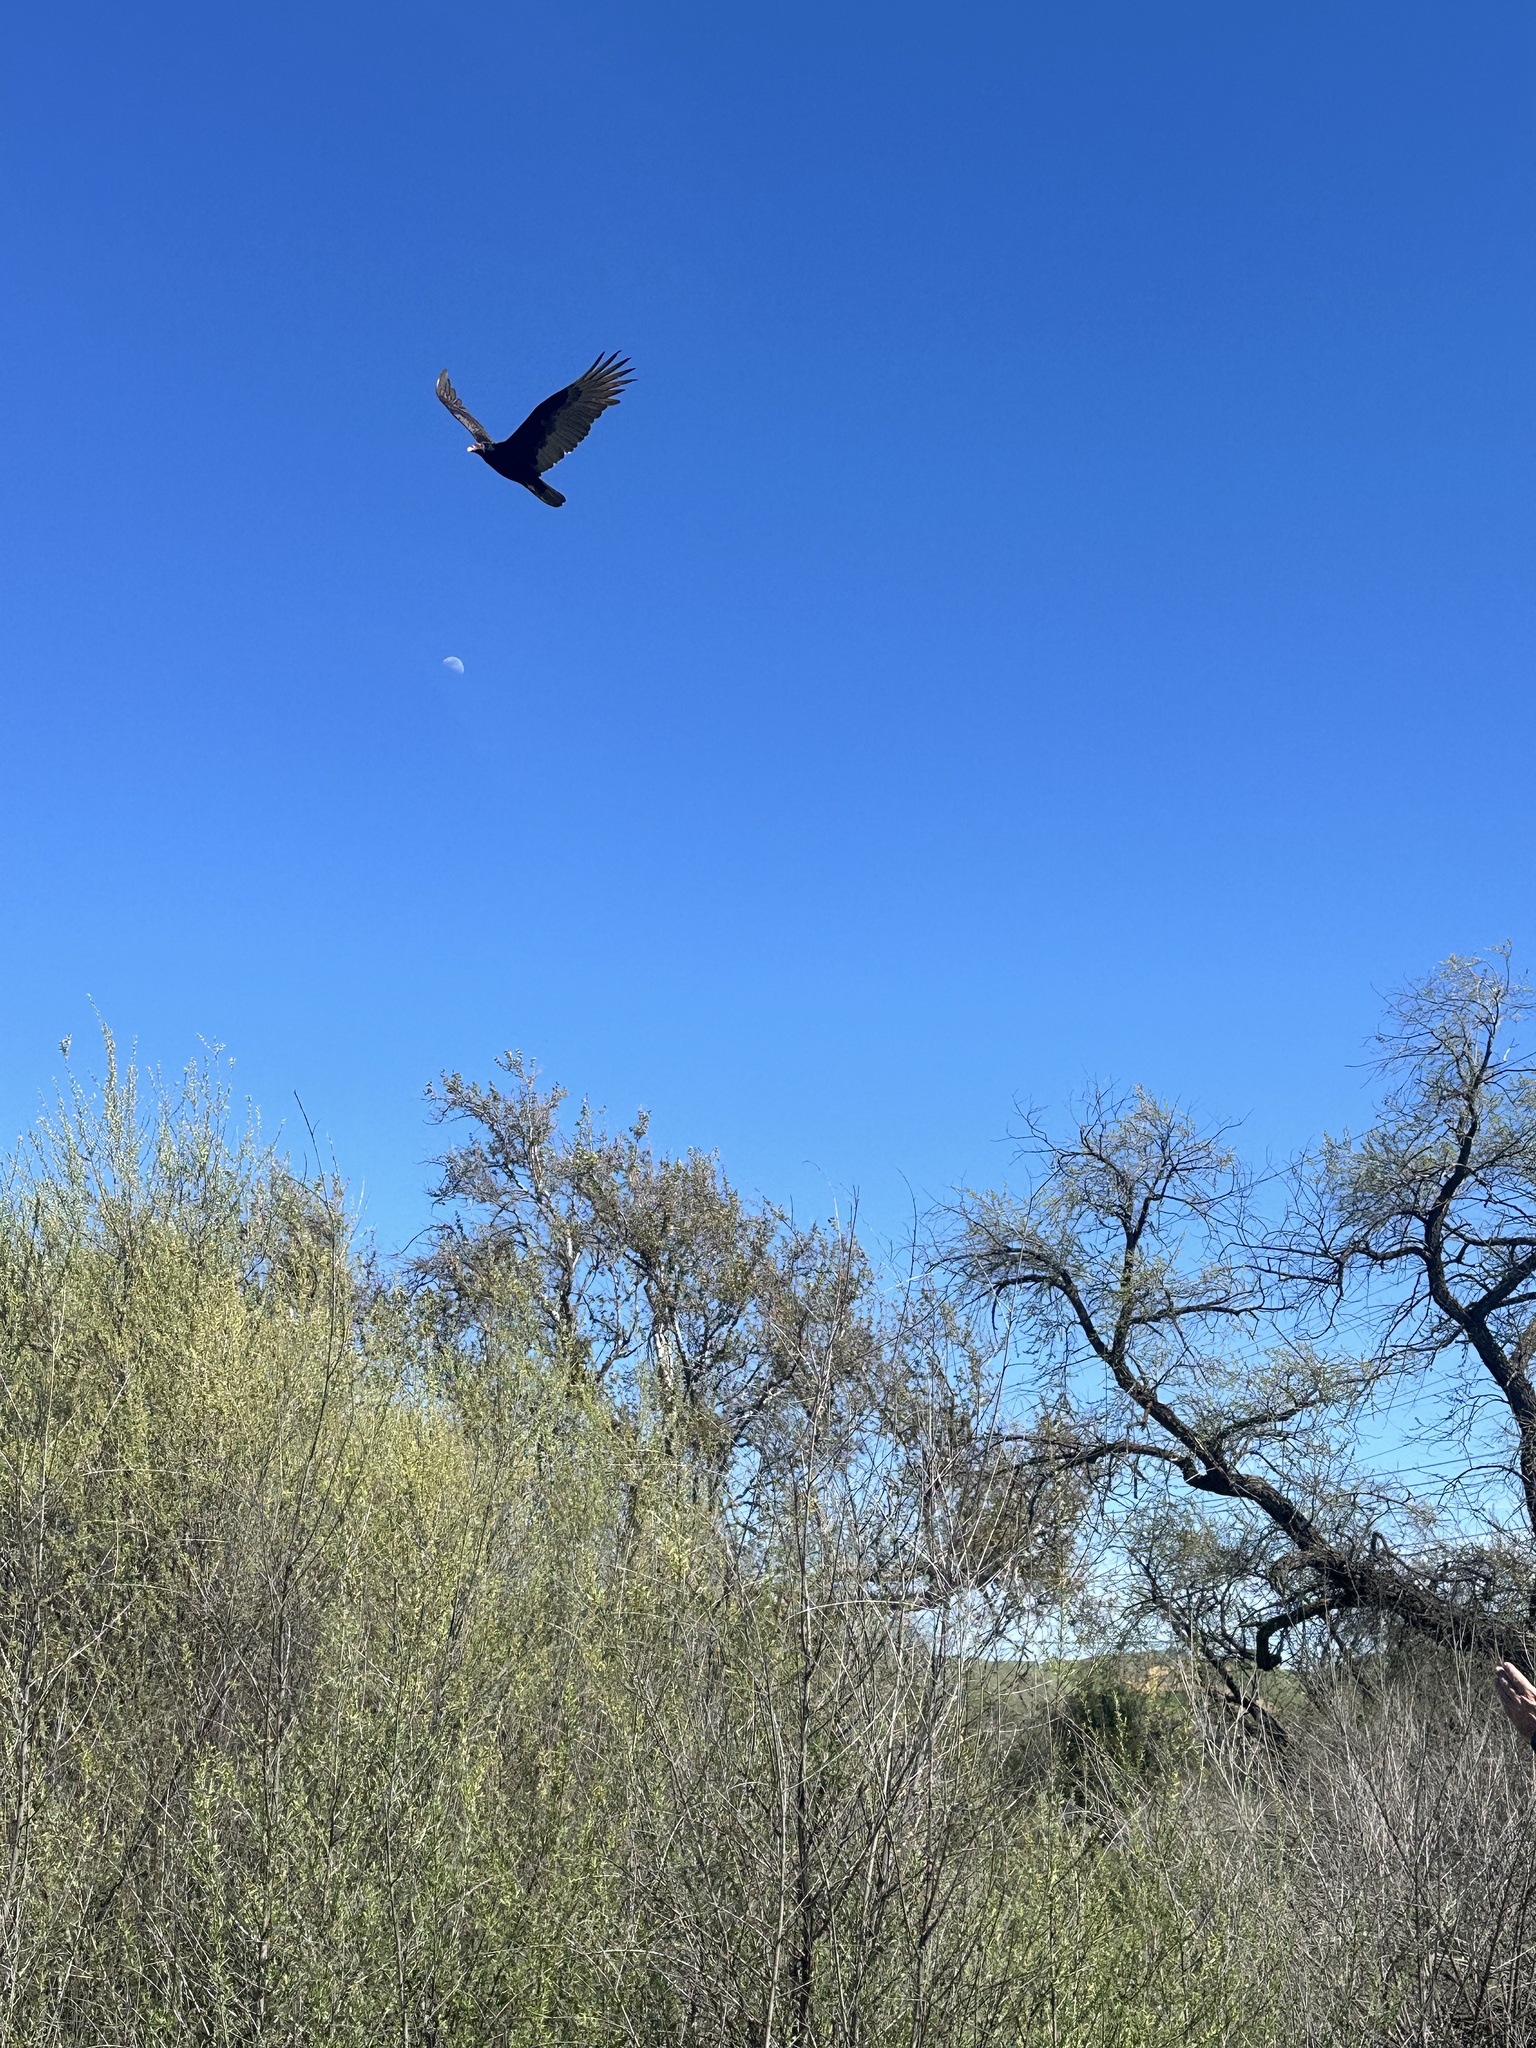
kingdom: Animalia
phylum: Chordata
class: Aves
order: Accipitriformes
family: Cathartidae
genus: Cathartes
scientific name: Cathartes aura
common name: Turkey vulture
